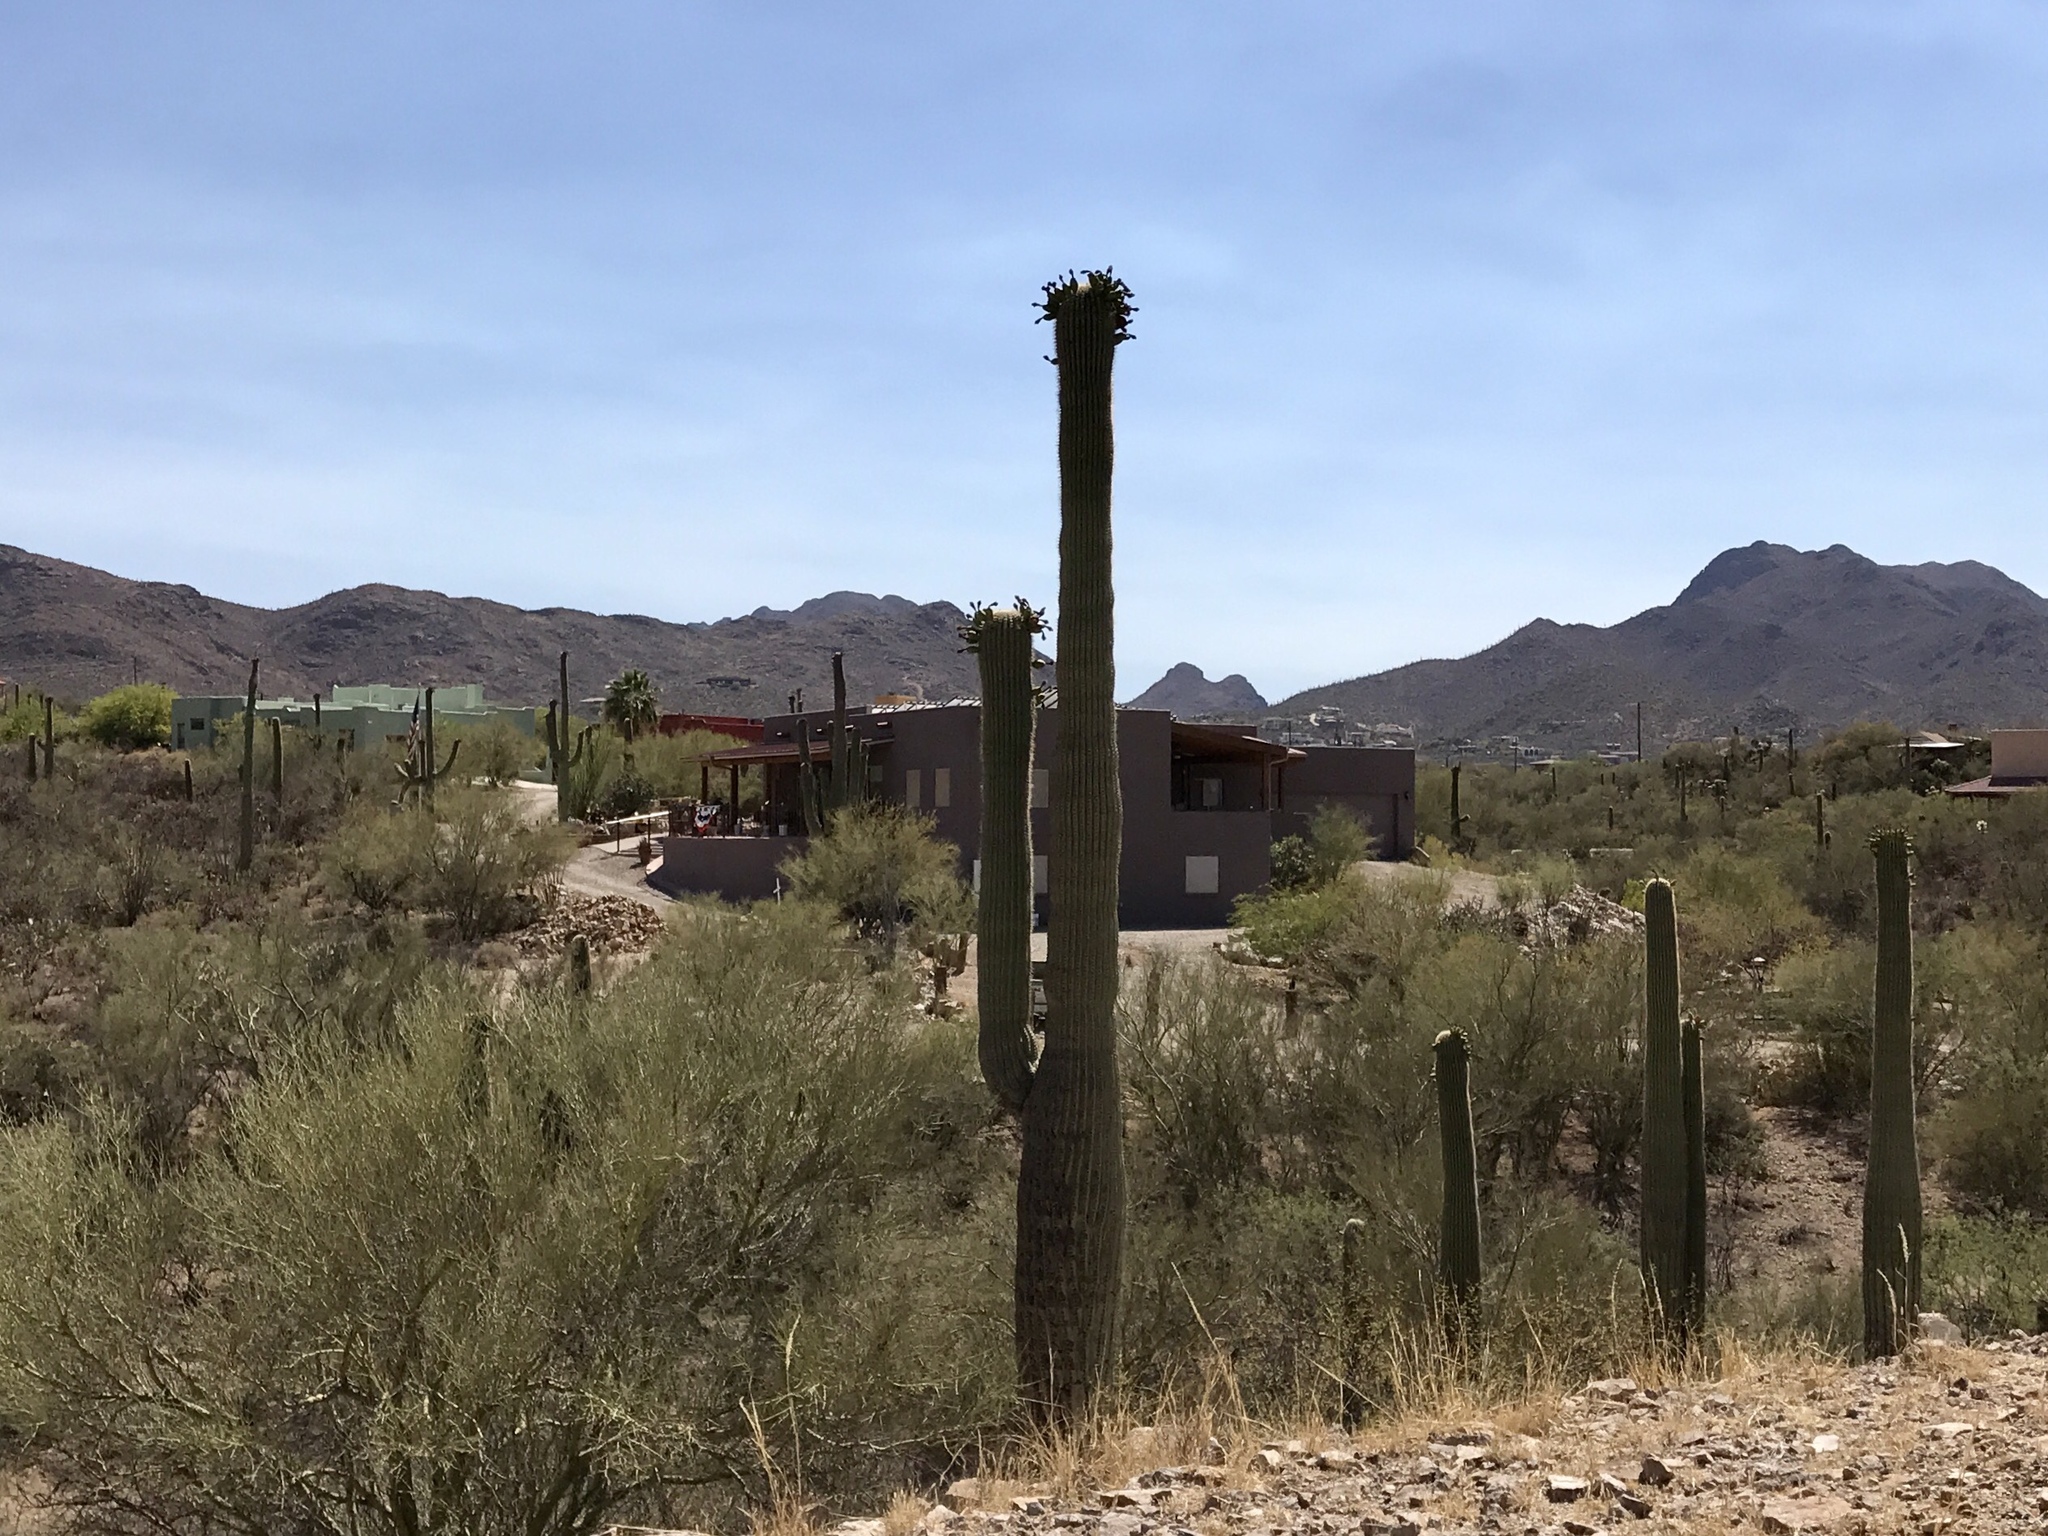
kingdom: Plantae
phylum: Tracheophyta
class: Magnoliopsida
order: Caryophyllales
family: Cactaceae
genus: Carnegiea
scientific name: Carnegiea gigantea
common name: Saguaro
